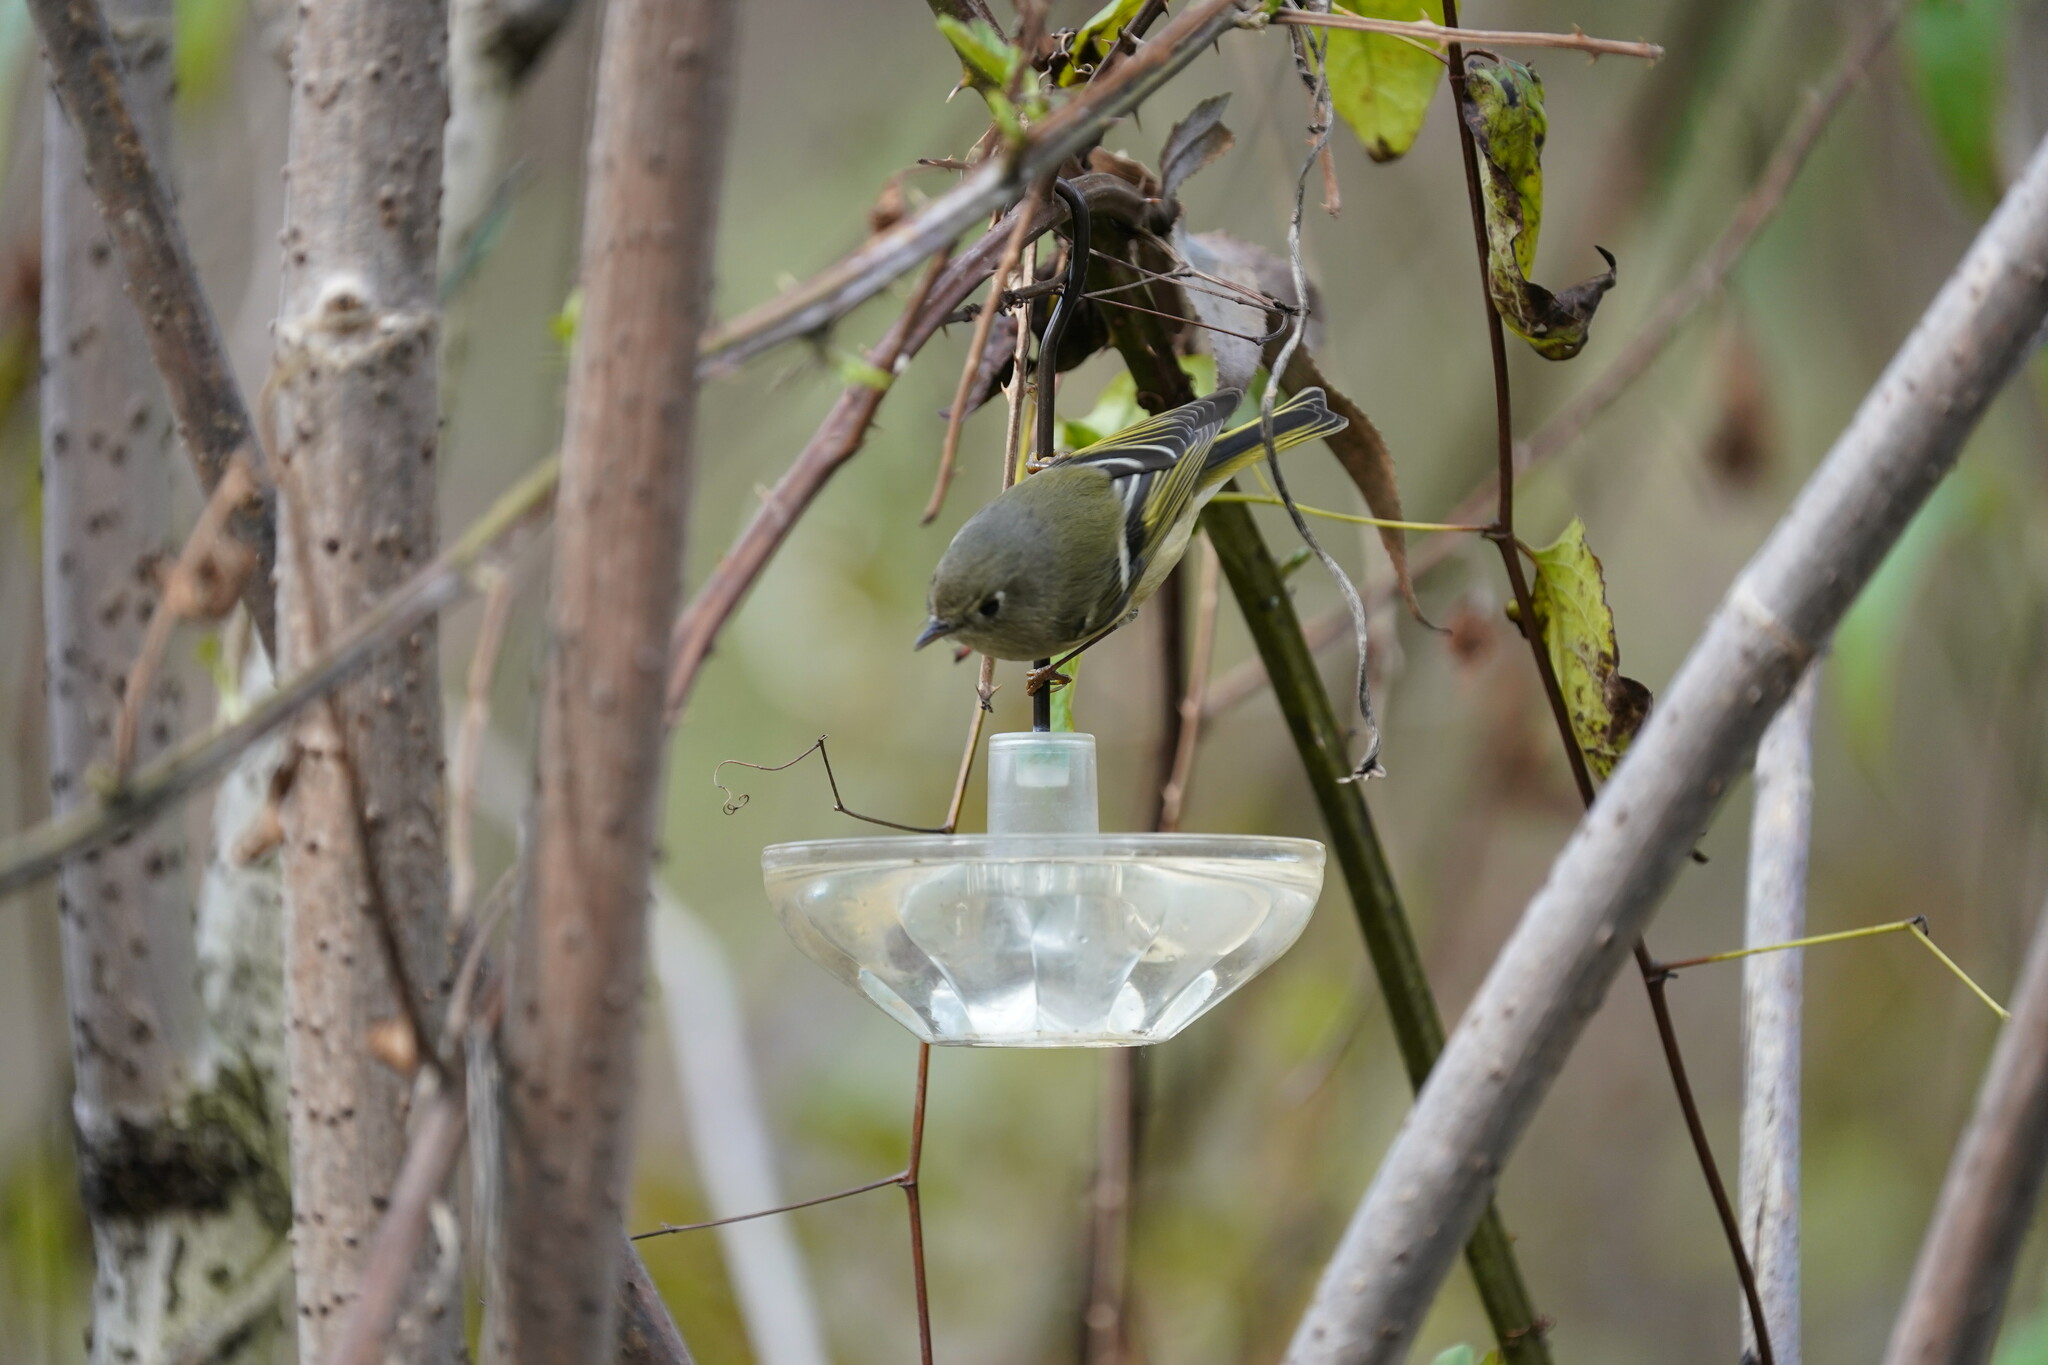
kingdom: Animalia
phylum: Chordata
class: Aves
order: Passeriformes
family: Regulidae
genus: Regulus
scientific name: Regulus calendula
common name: Ruby-crowned kinglet
